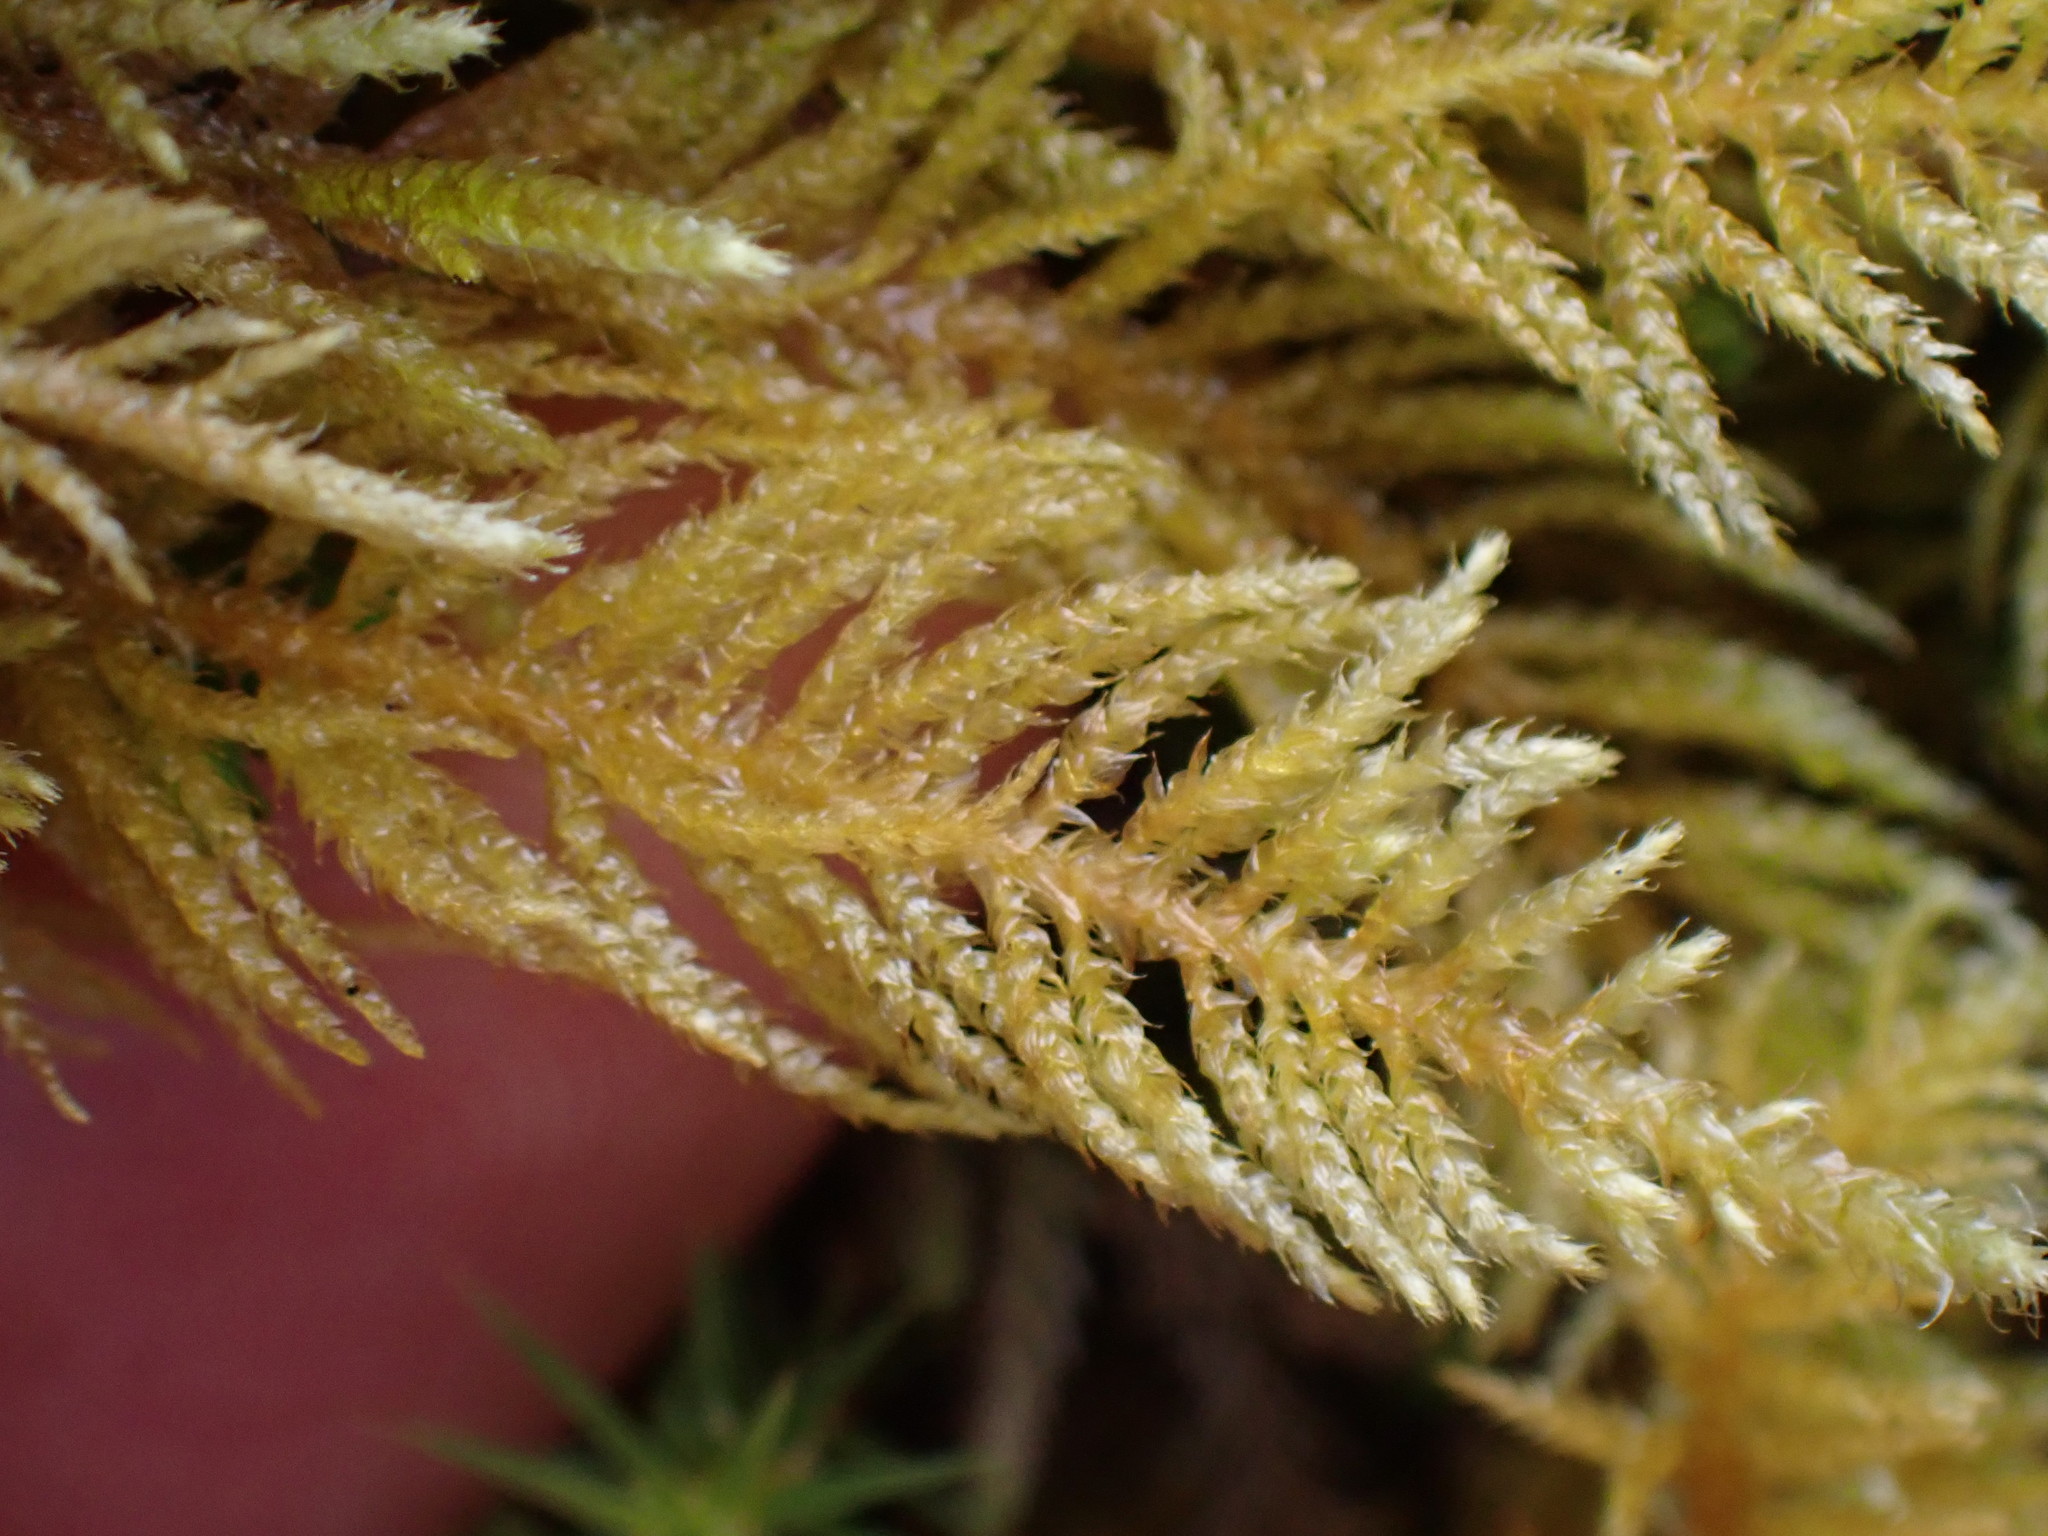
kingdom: Plantae
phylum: Bryophyta
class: Bryopsida
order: Hypnales
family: Brachytheciaceae
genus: Kindbergia
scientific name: Kindbergia oregana
